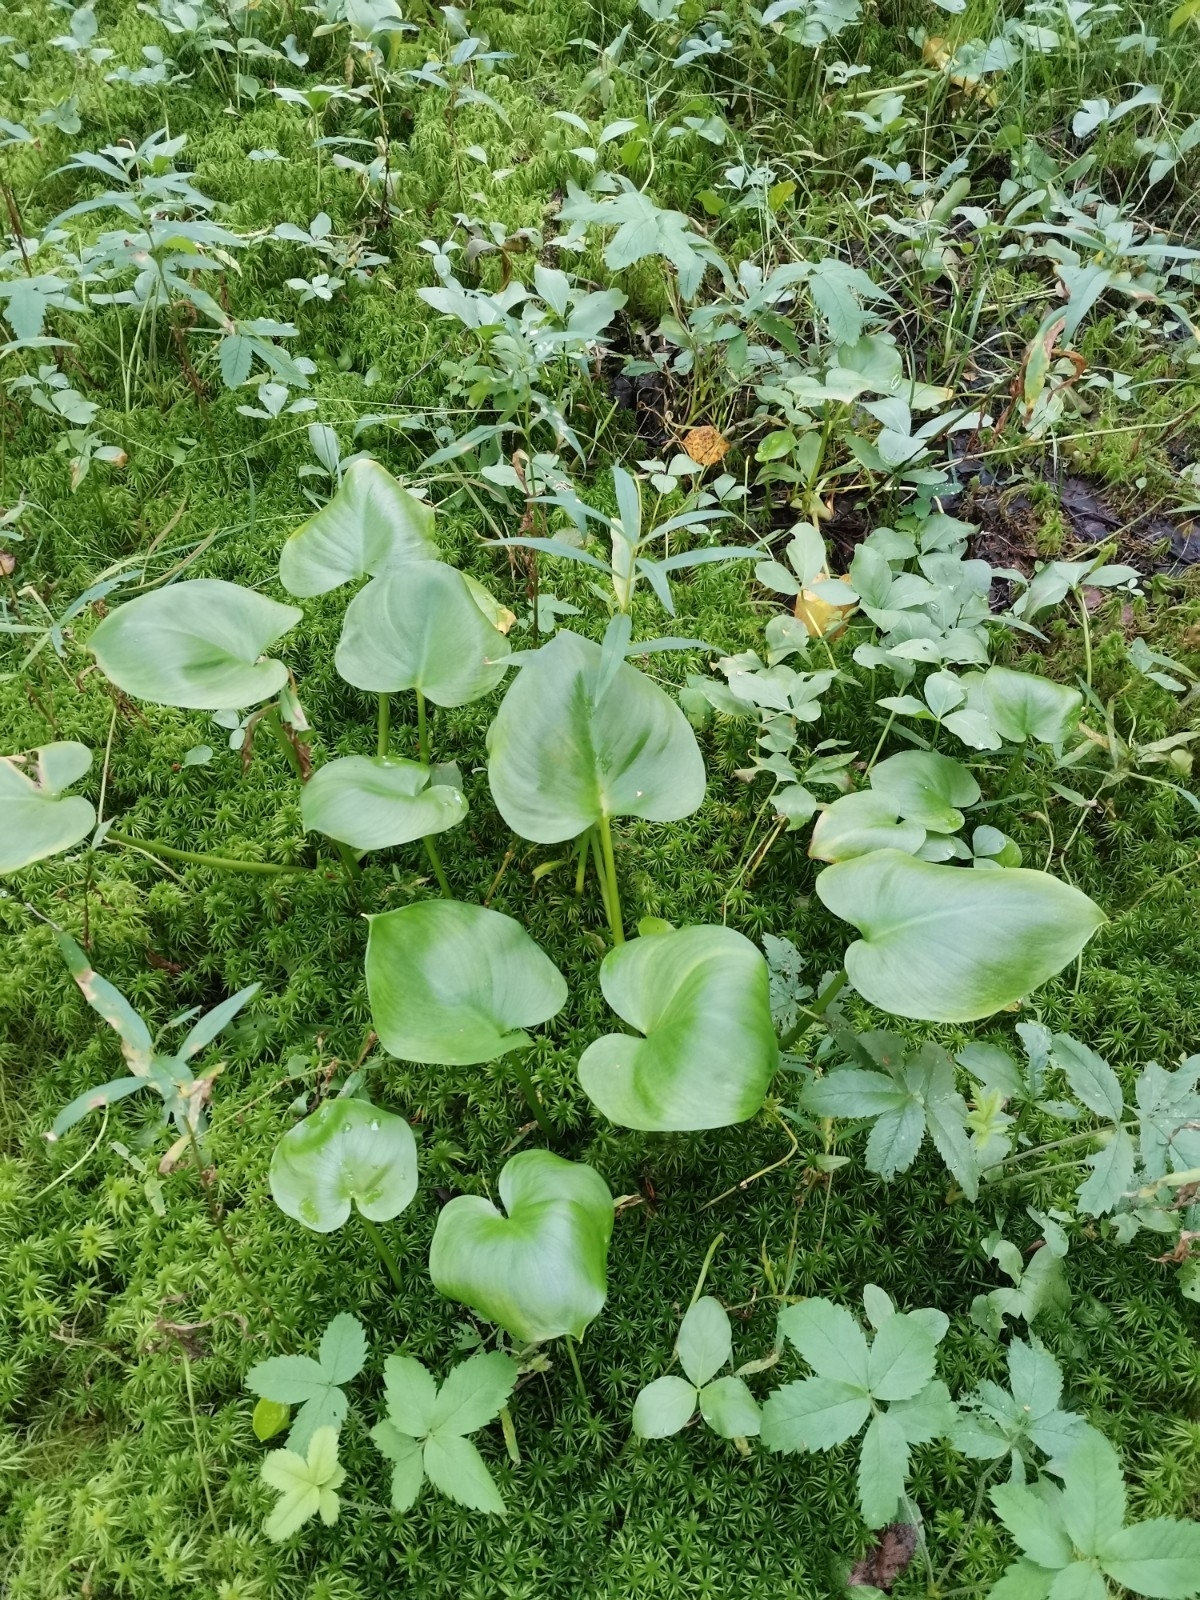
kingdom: Plantae
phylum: Tracheophyta
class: Liliopsida
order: Alismatales
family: Araceae
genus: Calla
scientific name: Calla palustris
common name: Bog arum
